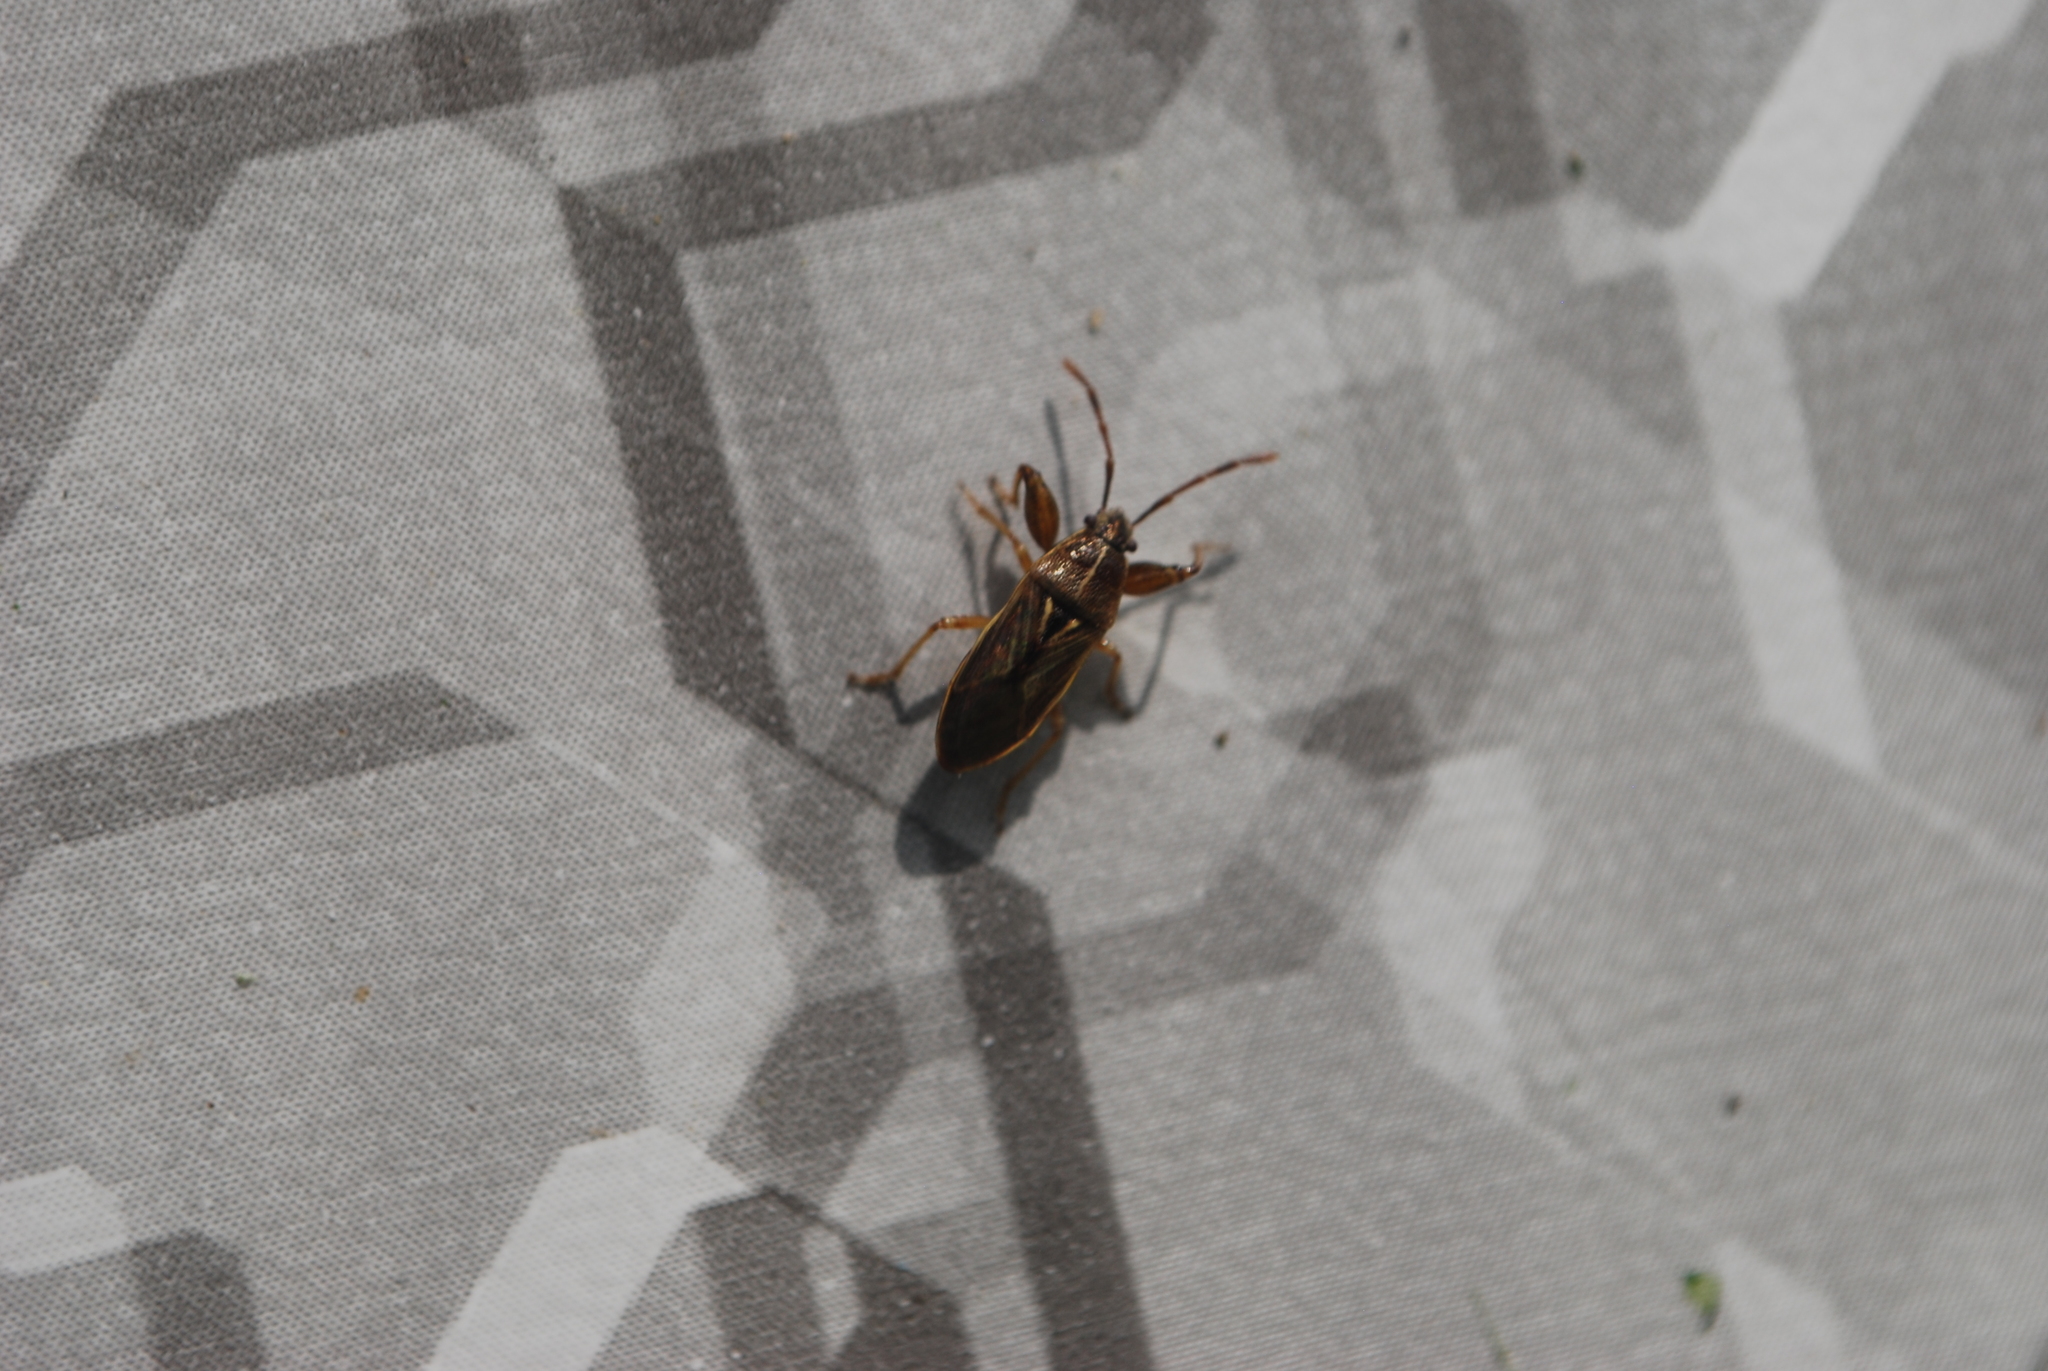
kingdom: Animalia
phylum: Arthropoda
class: Insecta
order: Hemiptera
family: Pachygronthidae
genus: Oedancala
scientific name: Oedancala dorsalis
